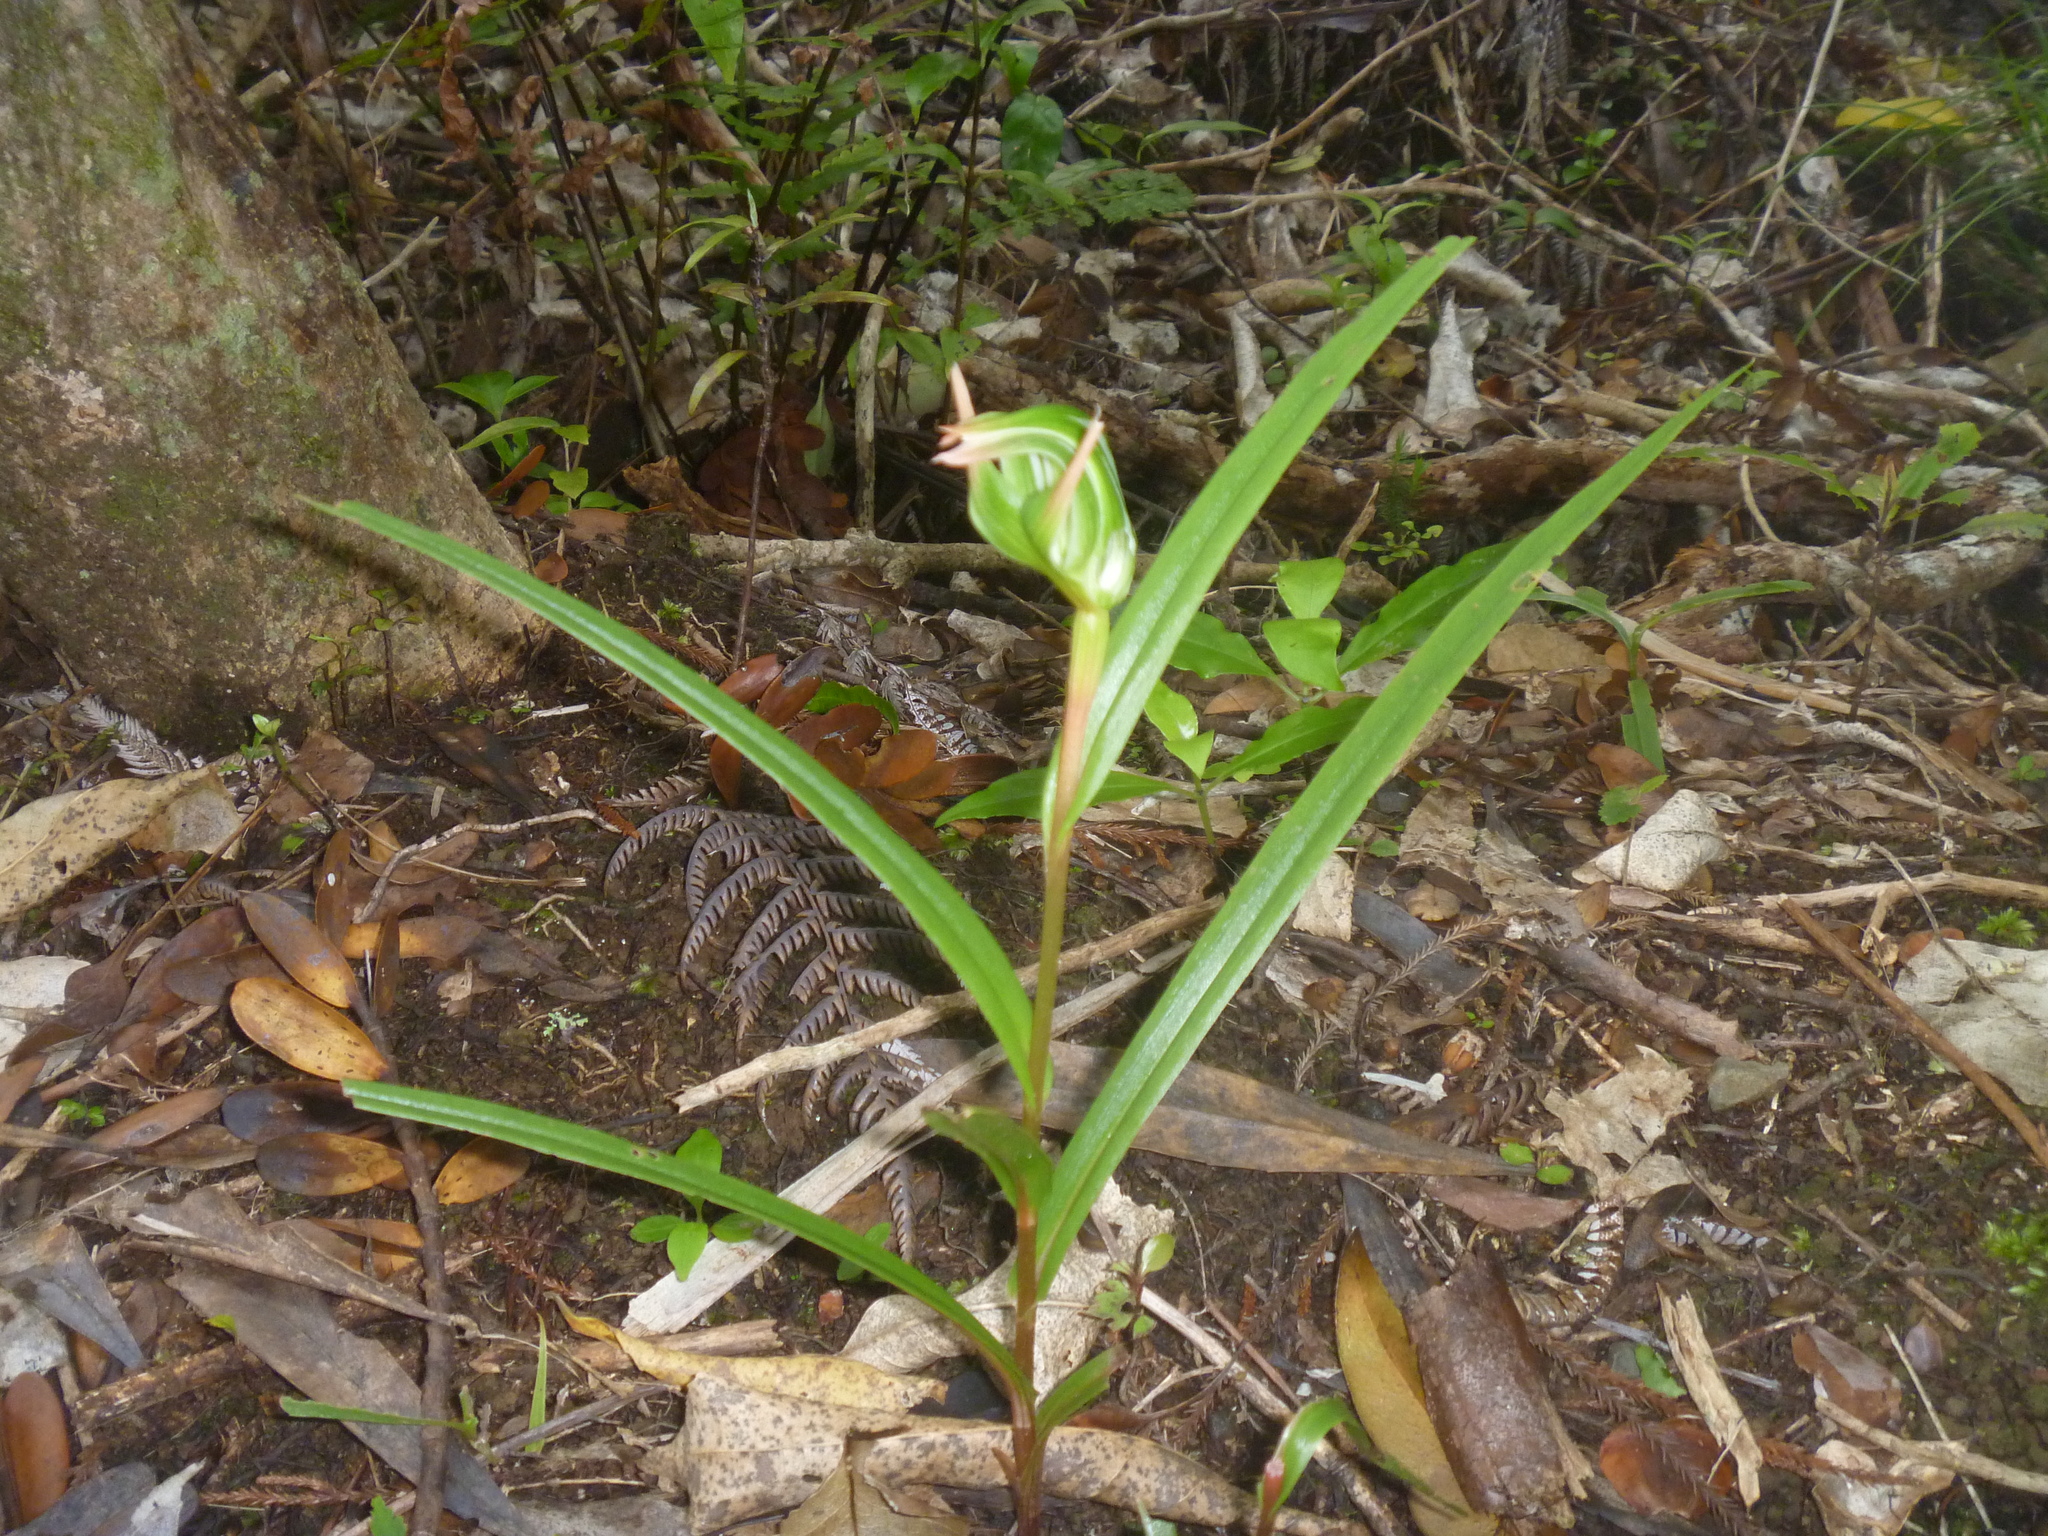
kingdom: Plantae
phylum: Tracheophyta
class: Liliopsida
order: Asparagales
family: Orchidaceae
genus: Pterostylis
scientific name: Pterostylis banksii
